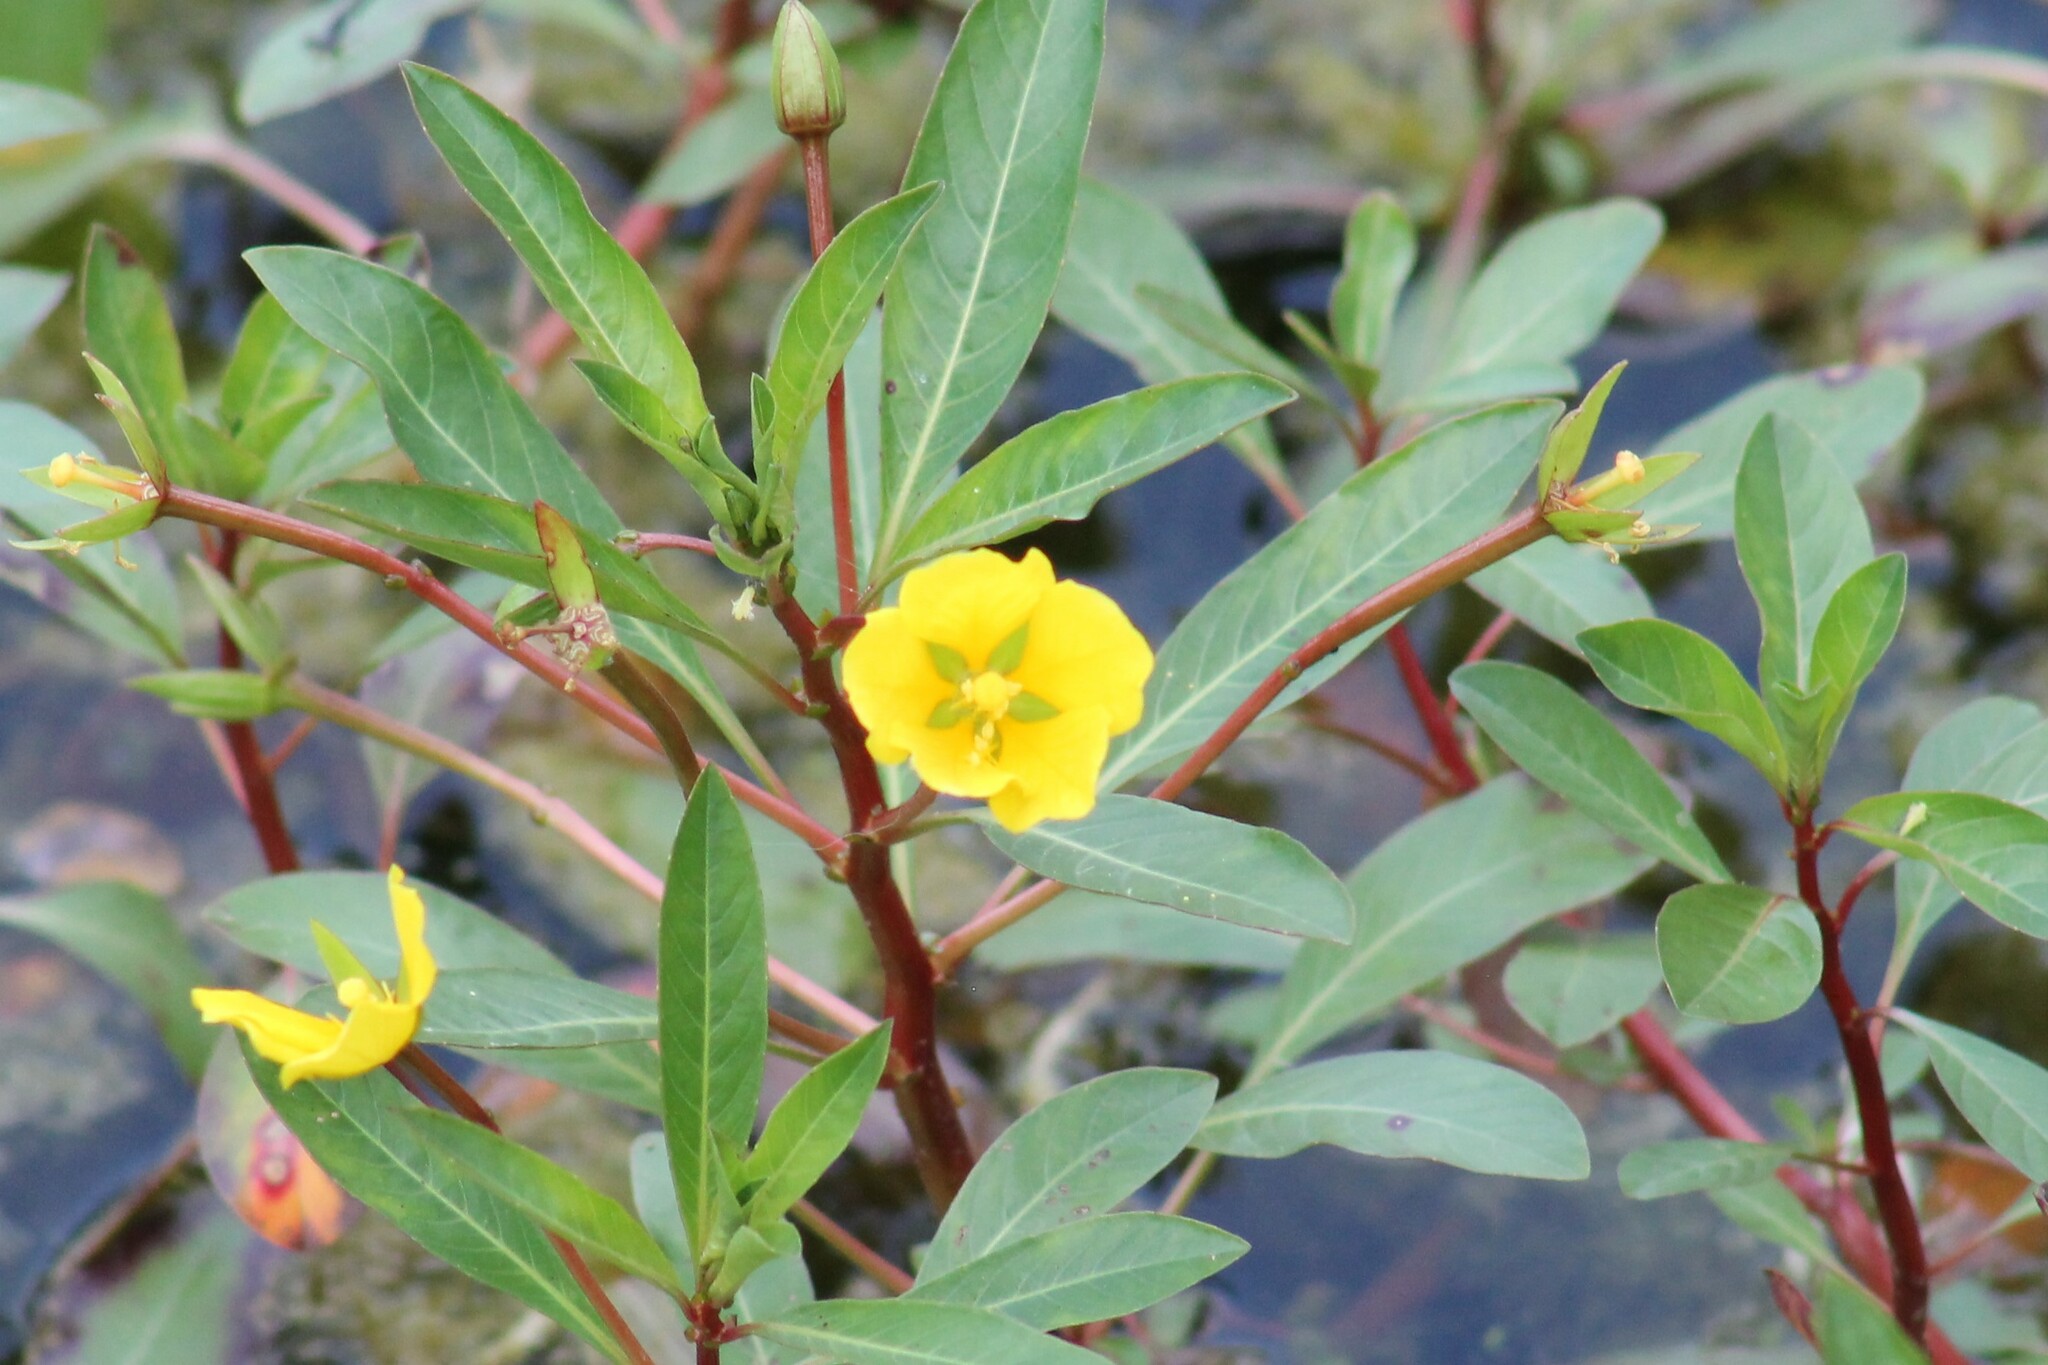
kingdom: Plantae
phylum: Tracheophyta
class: Magnoliopsida
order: Myrtales
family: Onagraceae
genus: Ludwigia
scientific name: Ludwigia peploides
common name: Floating primrose-willow
